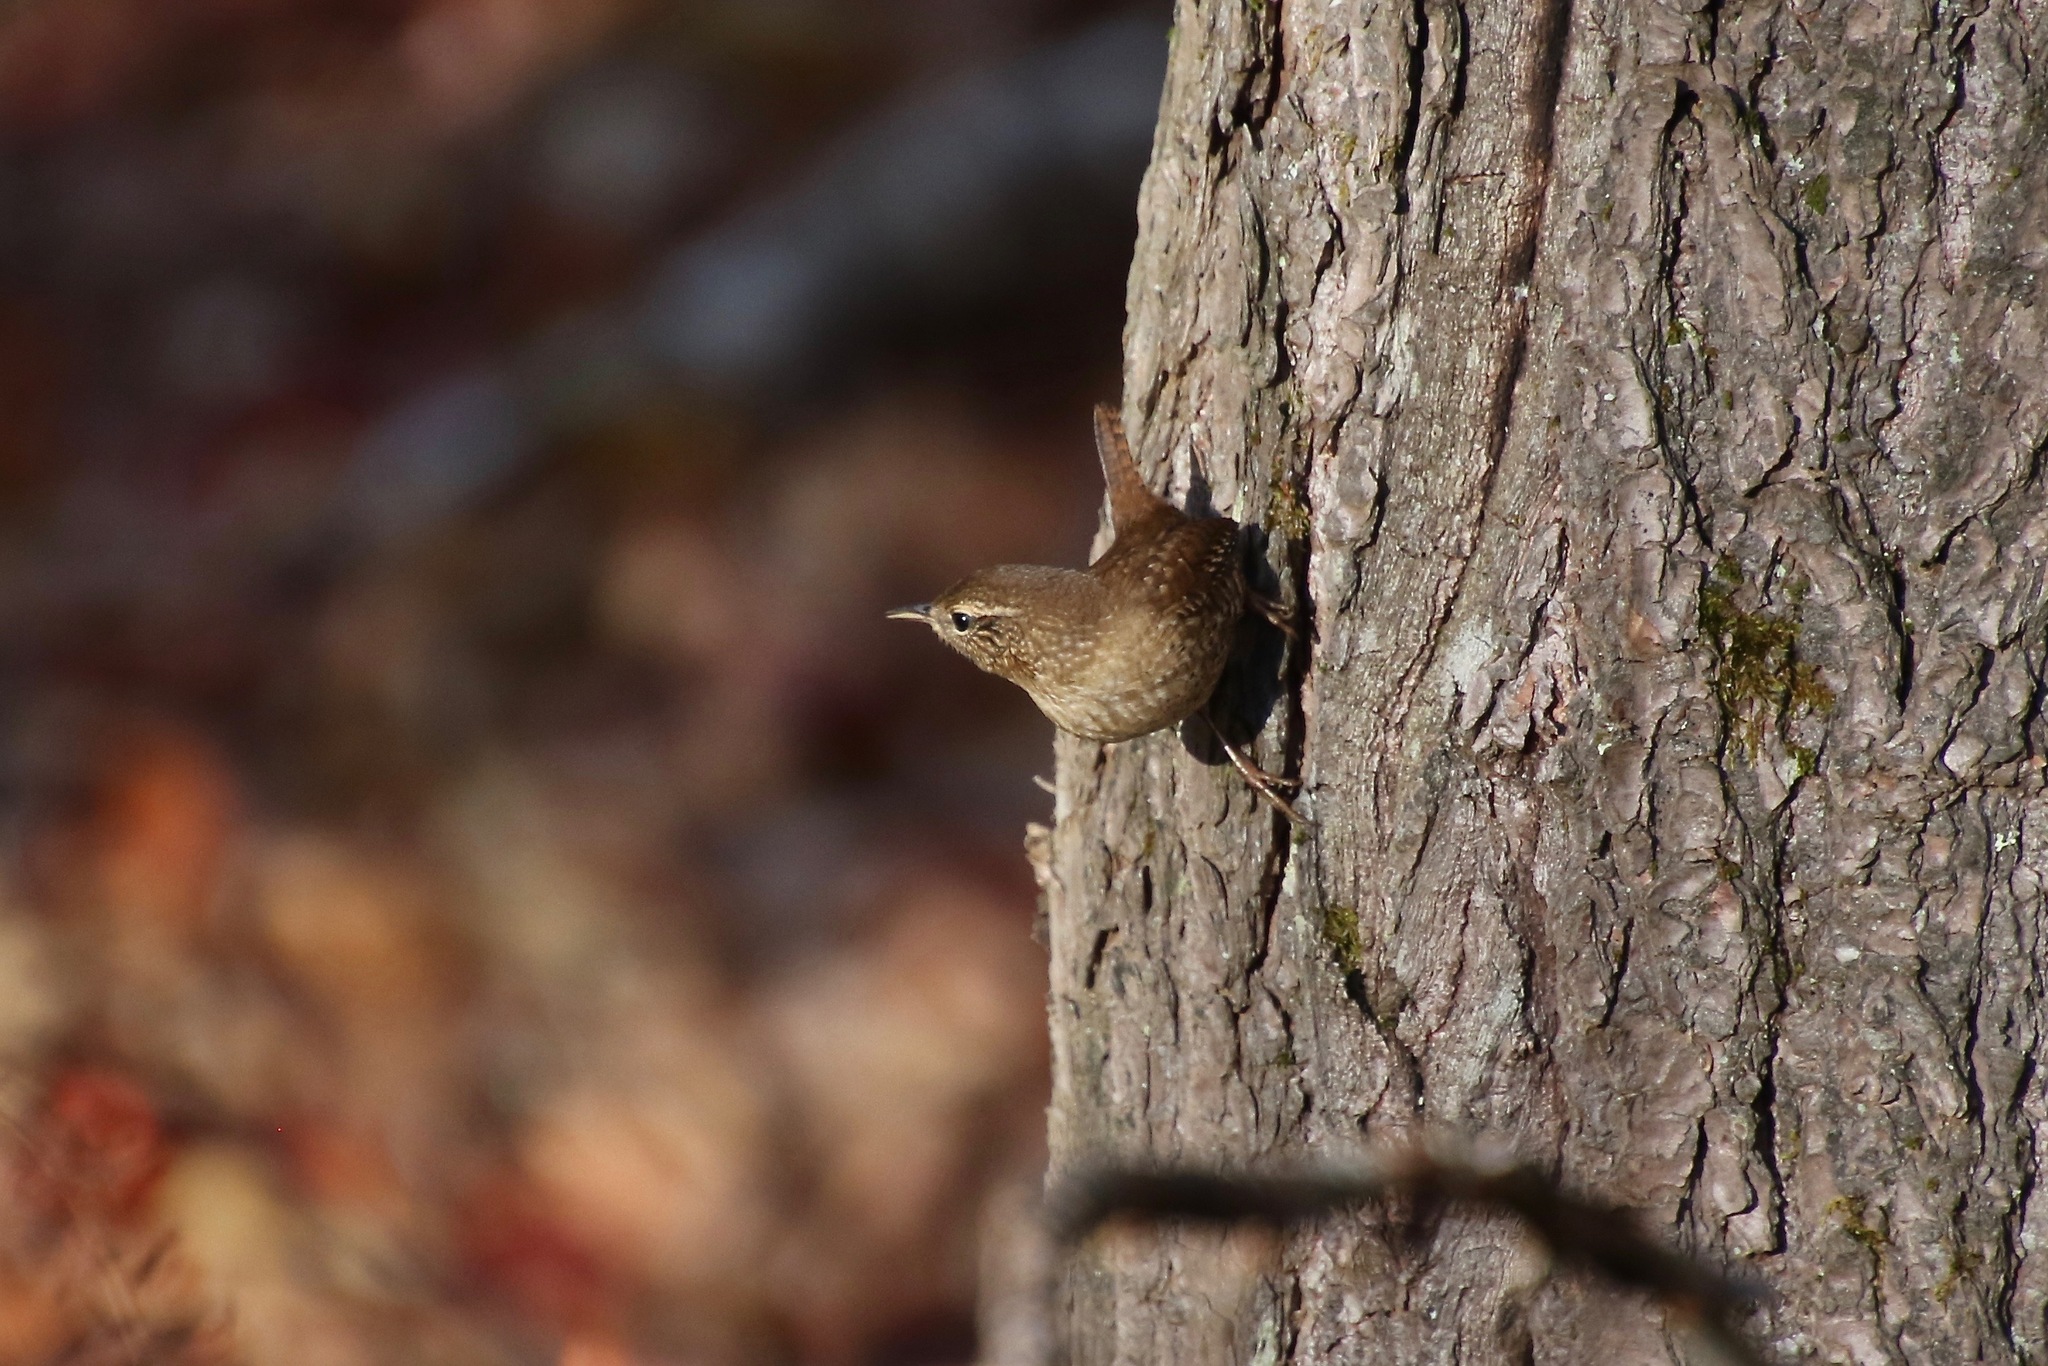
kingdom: Animalia
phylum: Chordata
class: Aves
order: Passeriformes
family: Troglodytidae
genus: Troglodytes
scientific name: Troglodytes hiemalis
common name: Winter wren
